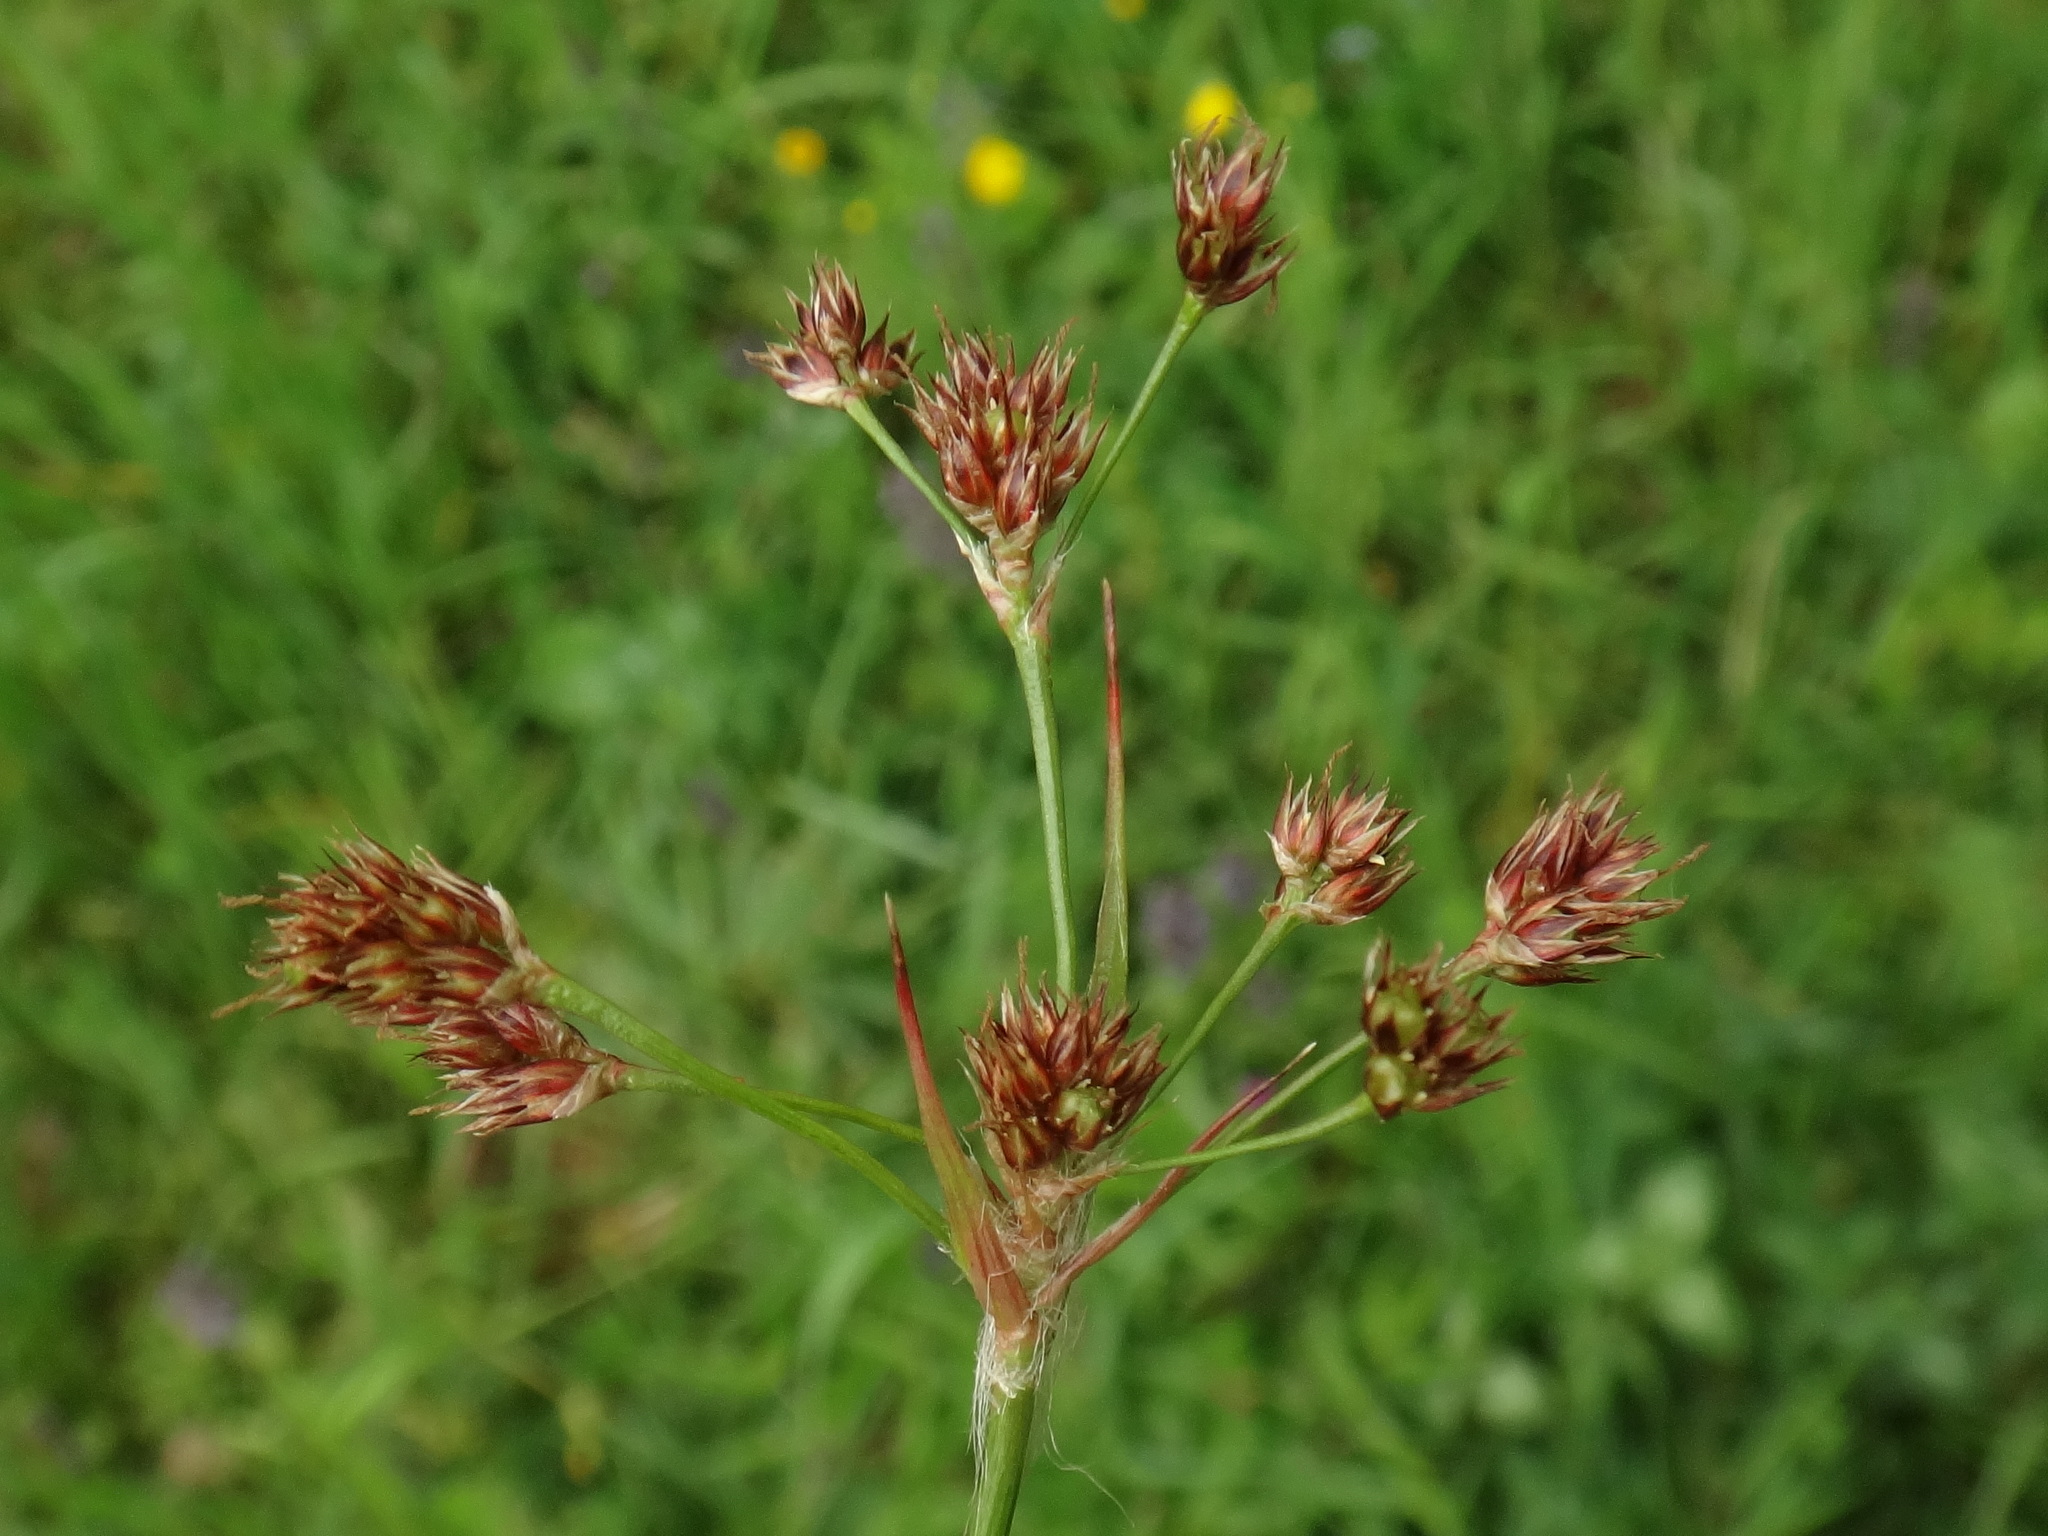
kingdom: Plantae
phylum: Tracheophyta
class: Liliopsida
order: Poales
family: Juncaceae
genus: Luzula
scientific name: Luzula multiflora
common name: Heath wood-rush
